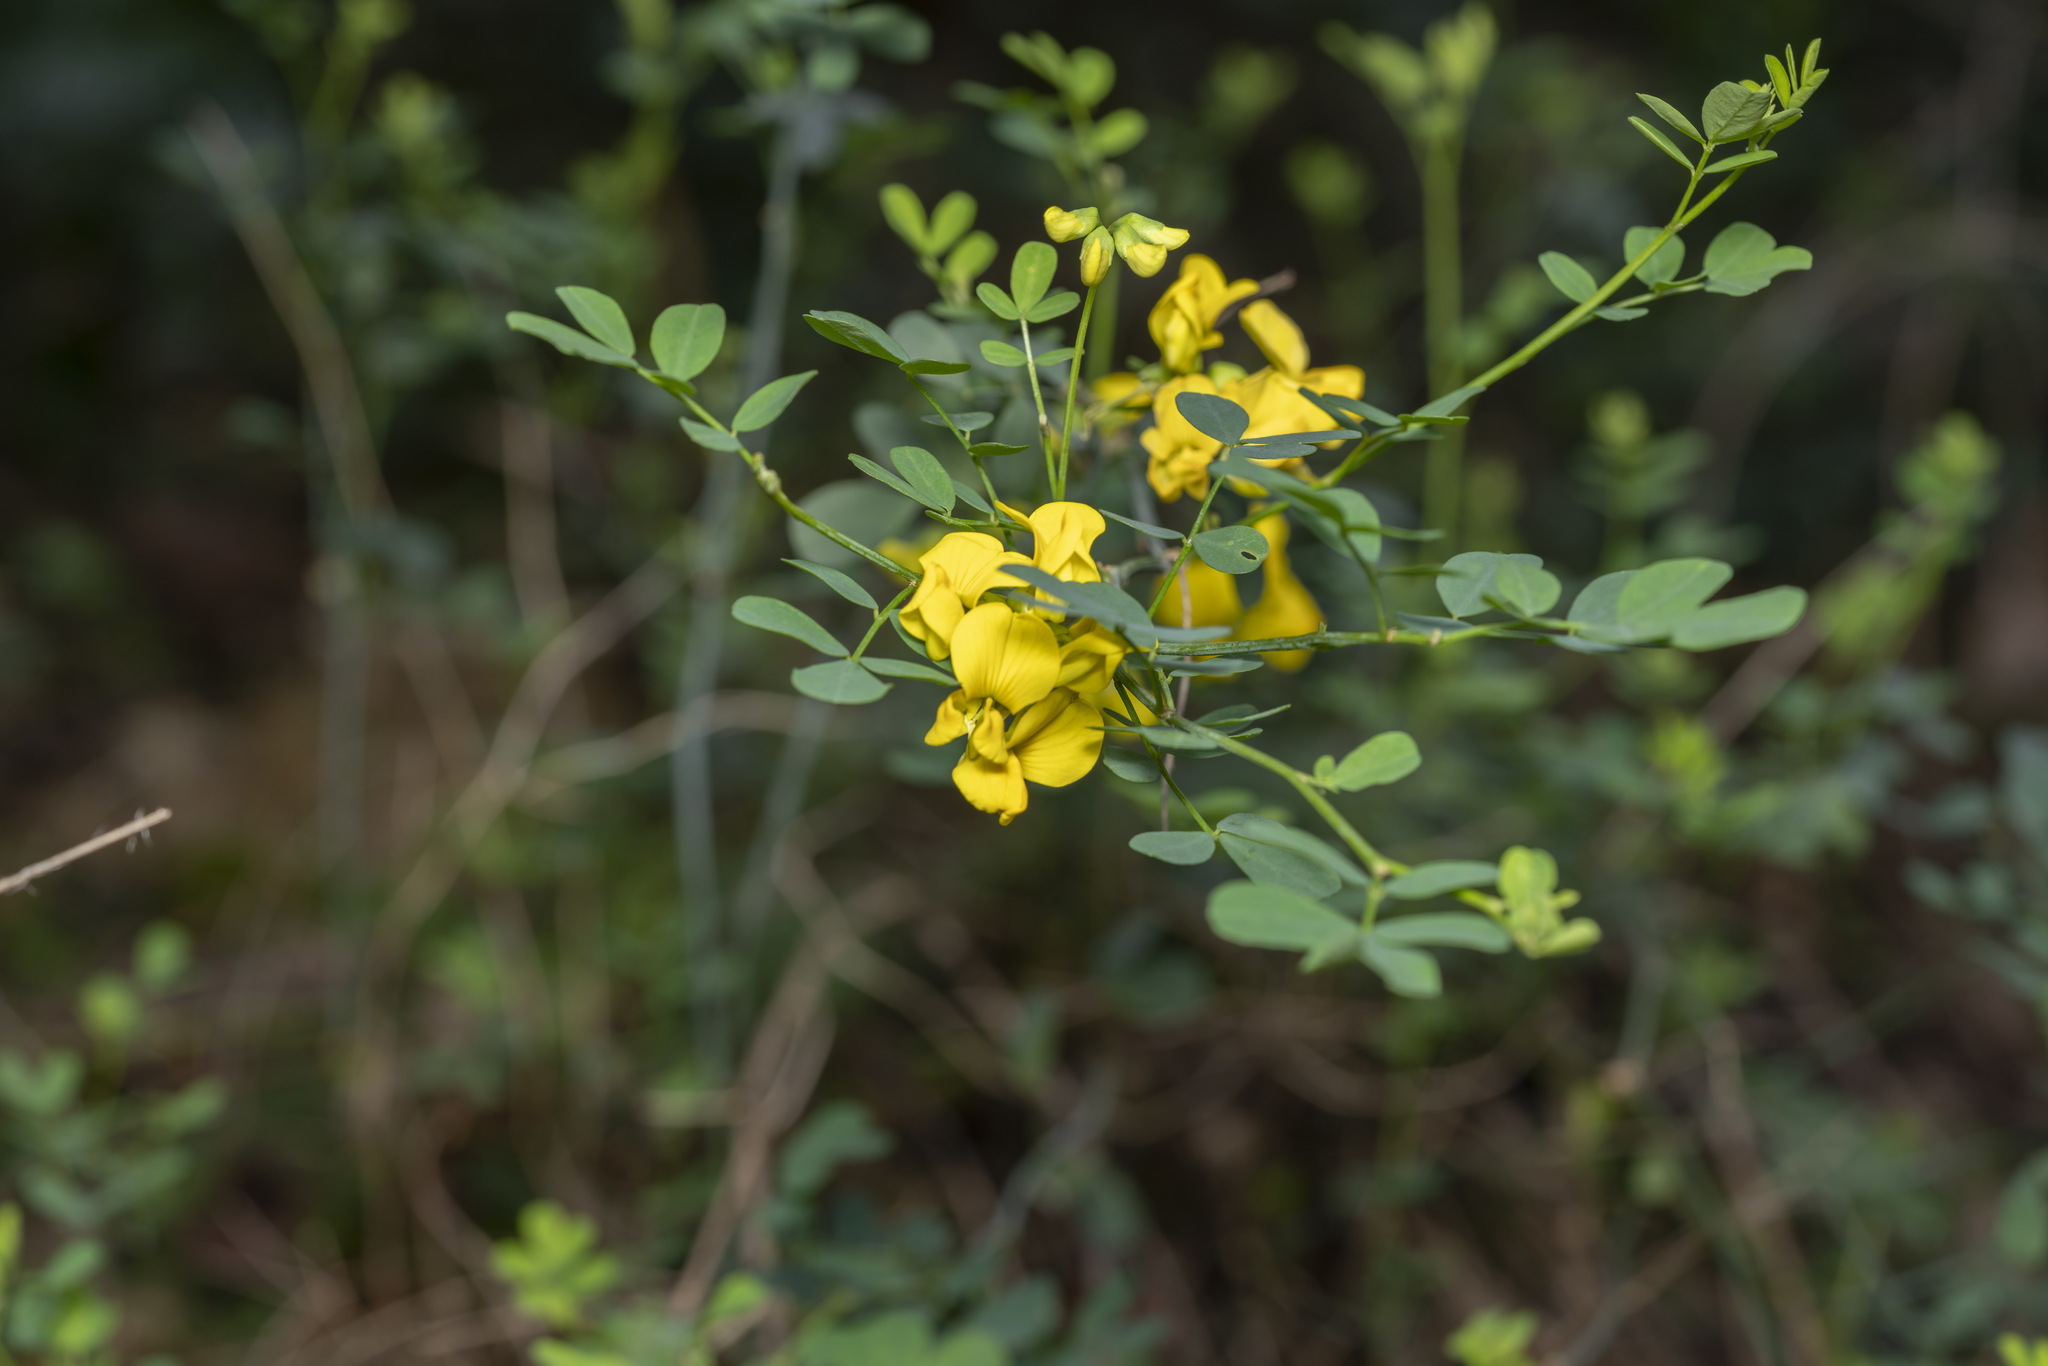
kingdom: Plantae
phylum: Tracheophyta
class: Magnoliopsida
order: Fabales
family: Fabaceae
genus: Hippocrepis
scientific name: Hippocrepis emerus
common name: Scorpion senna
